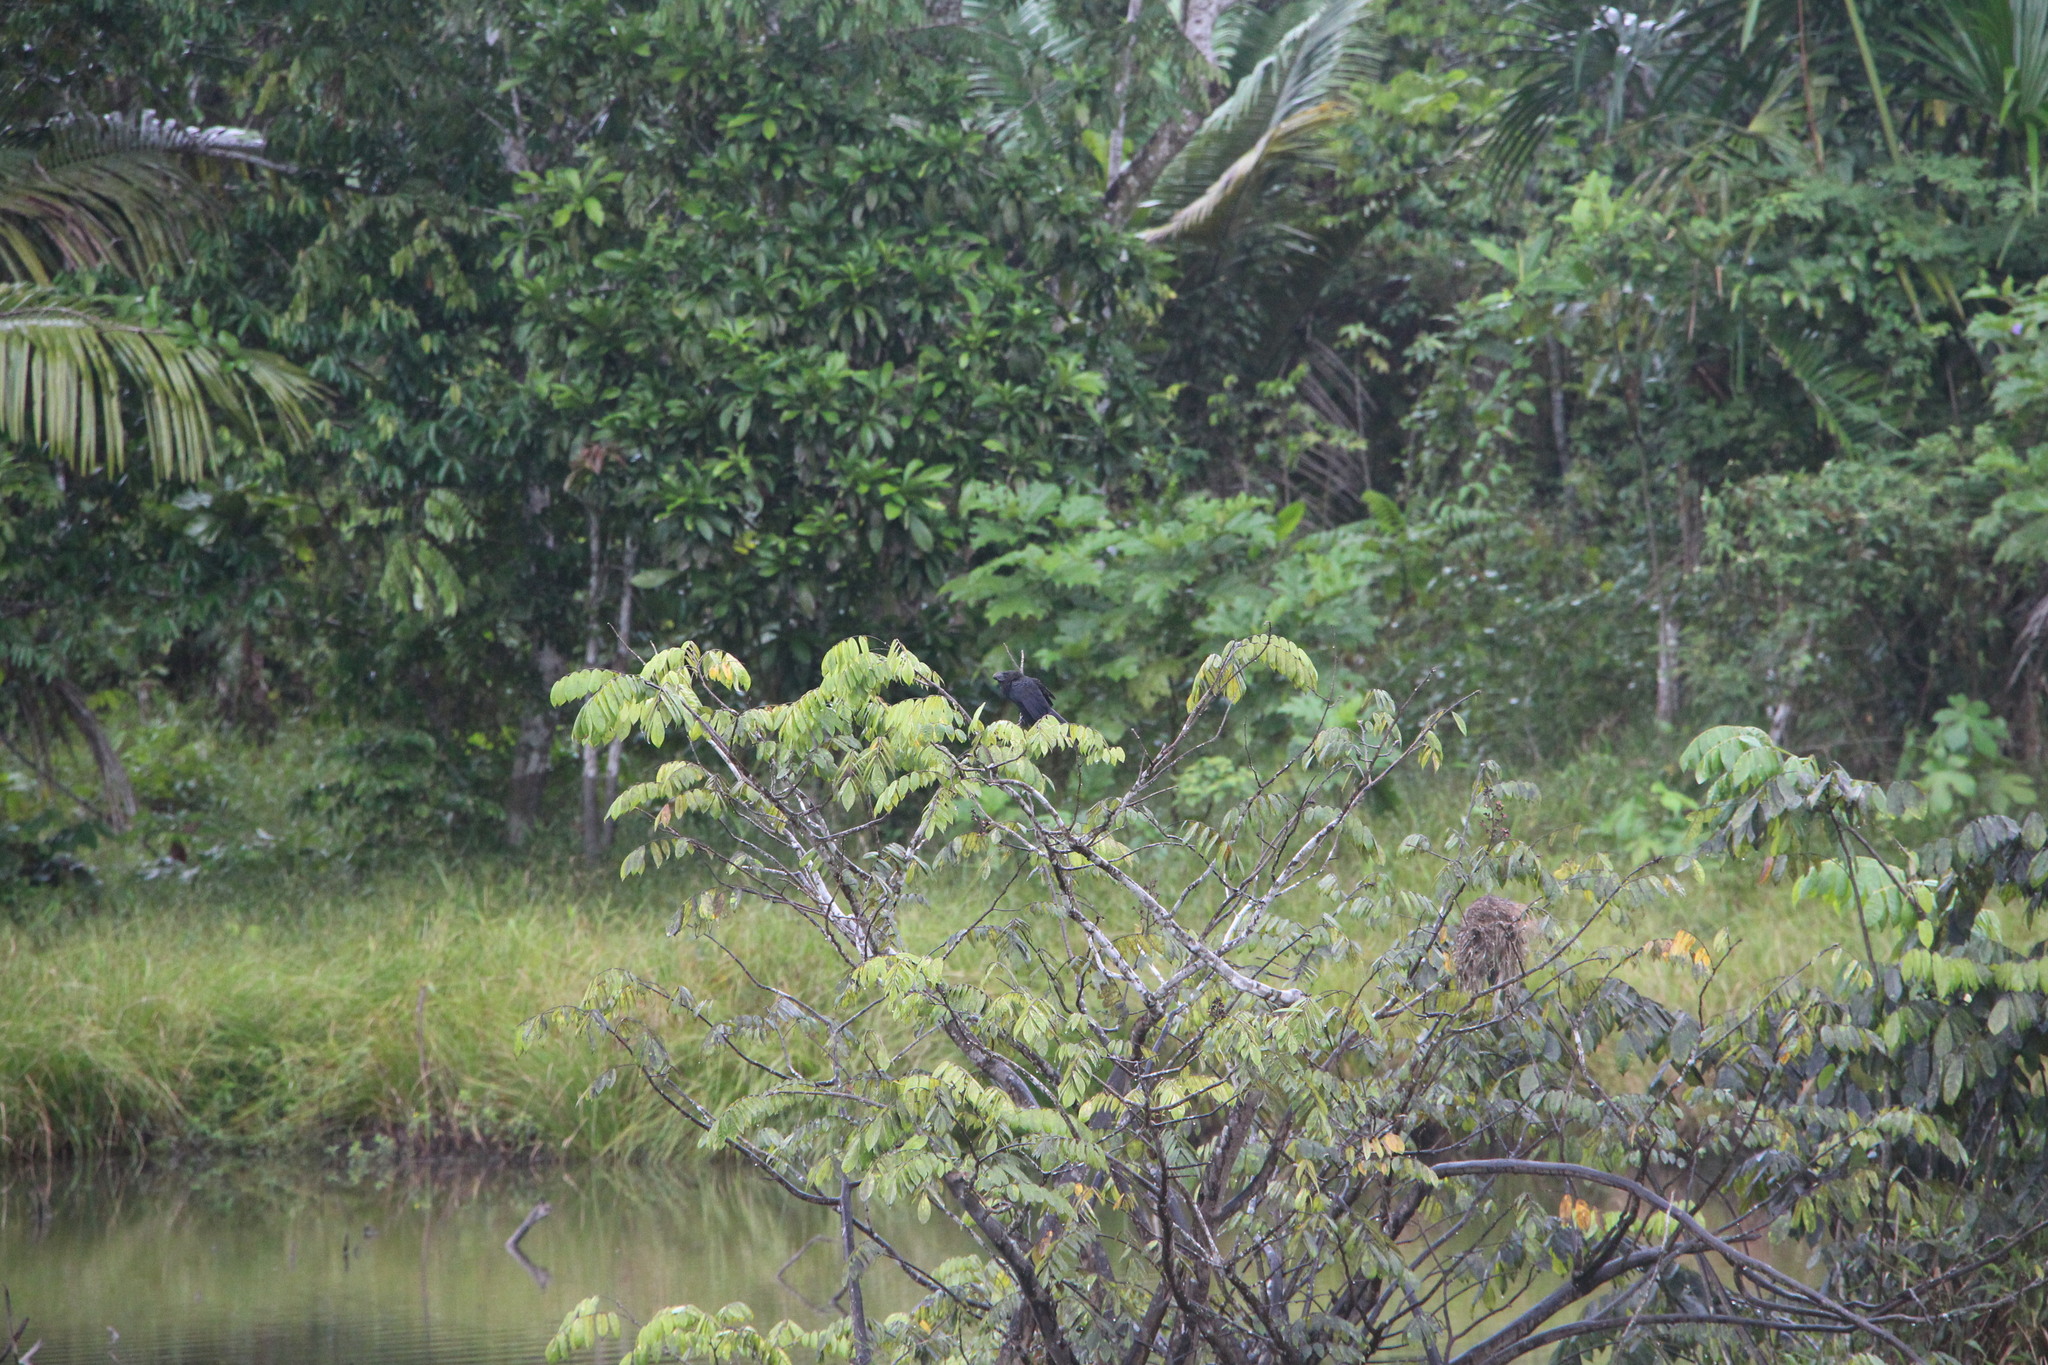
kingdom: Animalia
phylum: Chordata
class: Aves
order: Cuculiformes
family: Cuculidae
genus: Crotophaga
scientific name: Crotophaga ani
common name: Smooth-billed ani
